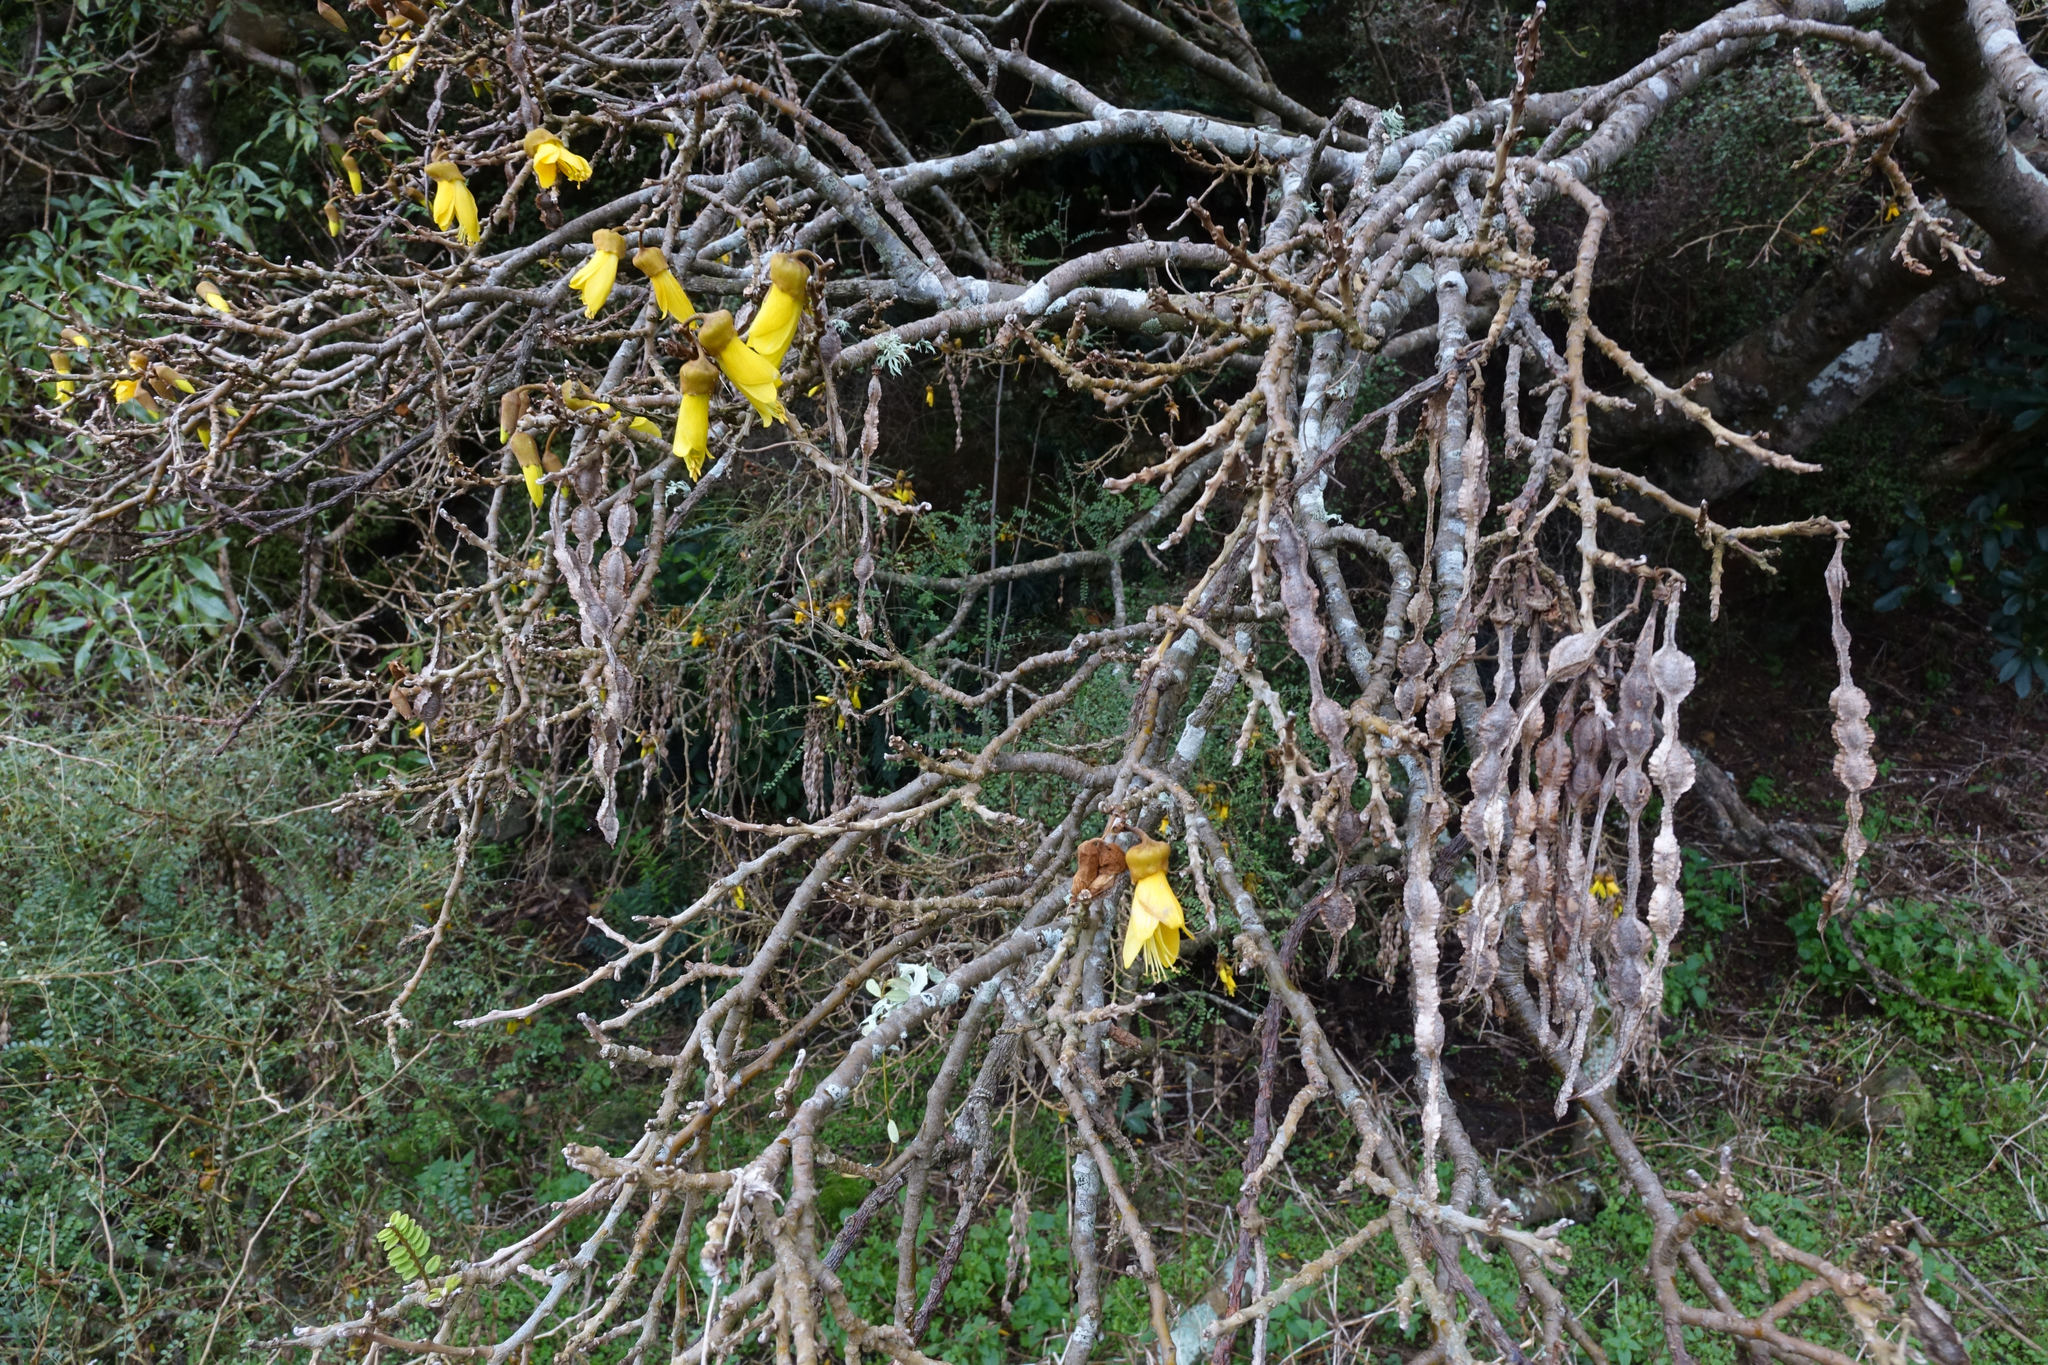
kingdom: Plantae
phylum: Tracheophyta
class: Magnoliopsida
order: Fabales
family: Fabaceae
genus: Sophora
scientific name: Sophora microphylla
